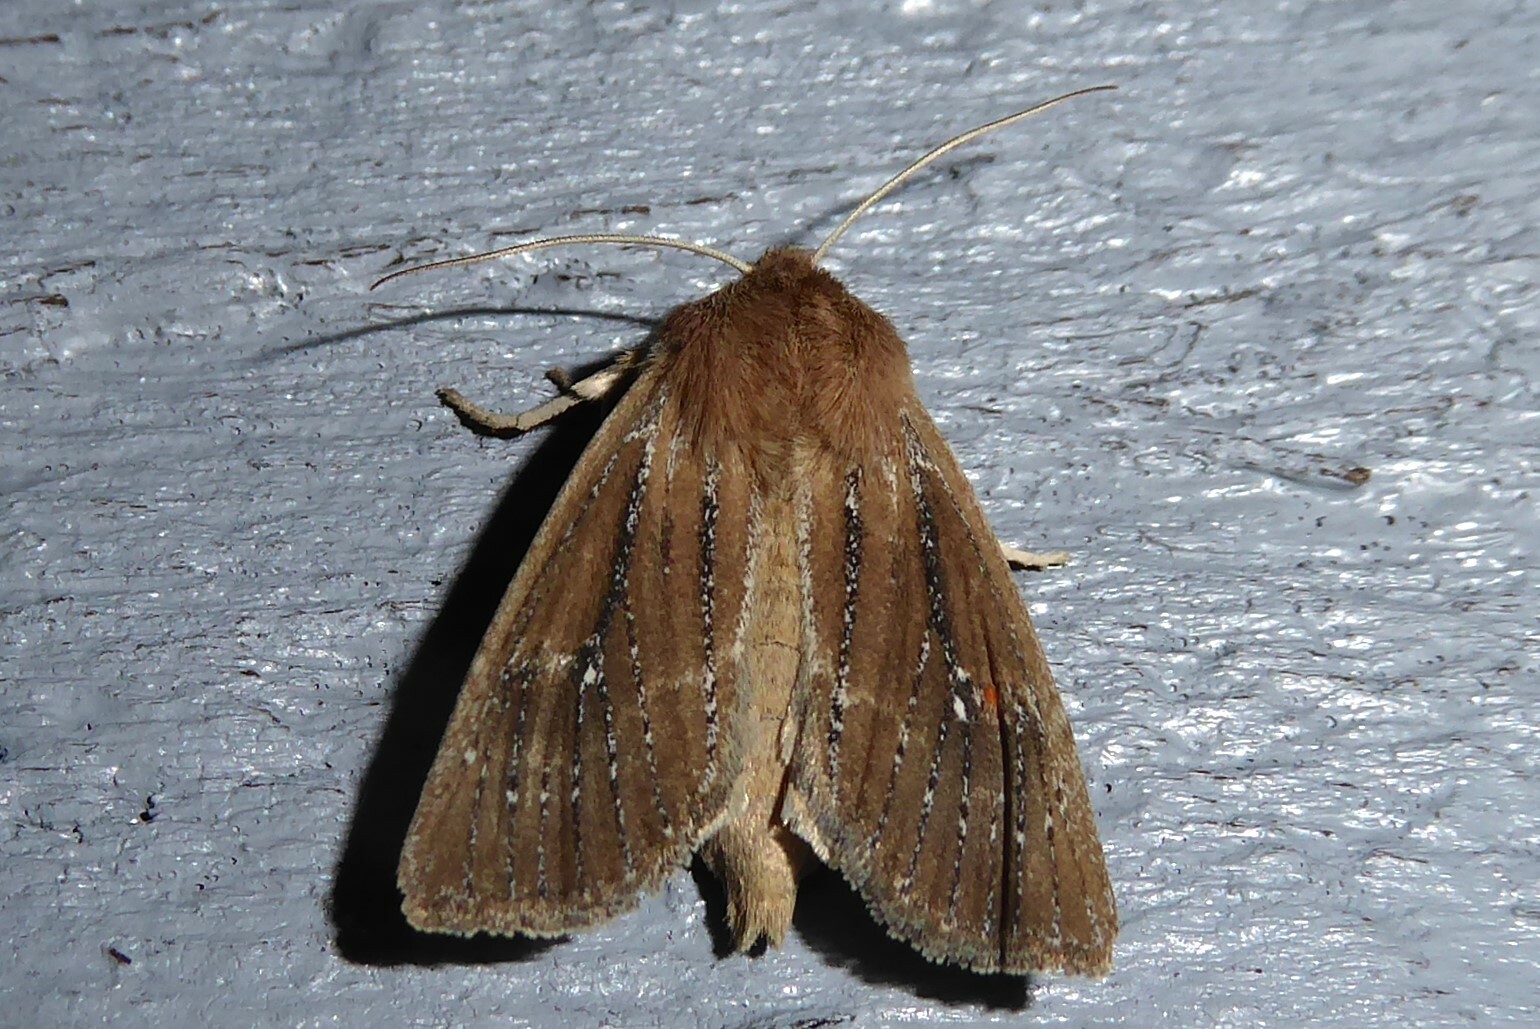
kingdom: Animalia
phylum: Arthropoda
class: Insecta
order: Lepidoptera
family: Noctuidae
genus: Ichneutica
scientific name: Ichneutica
